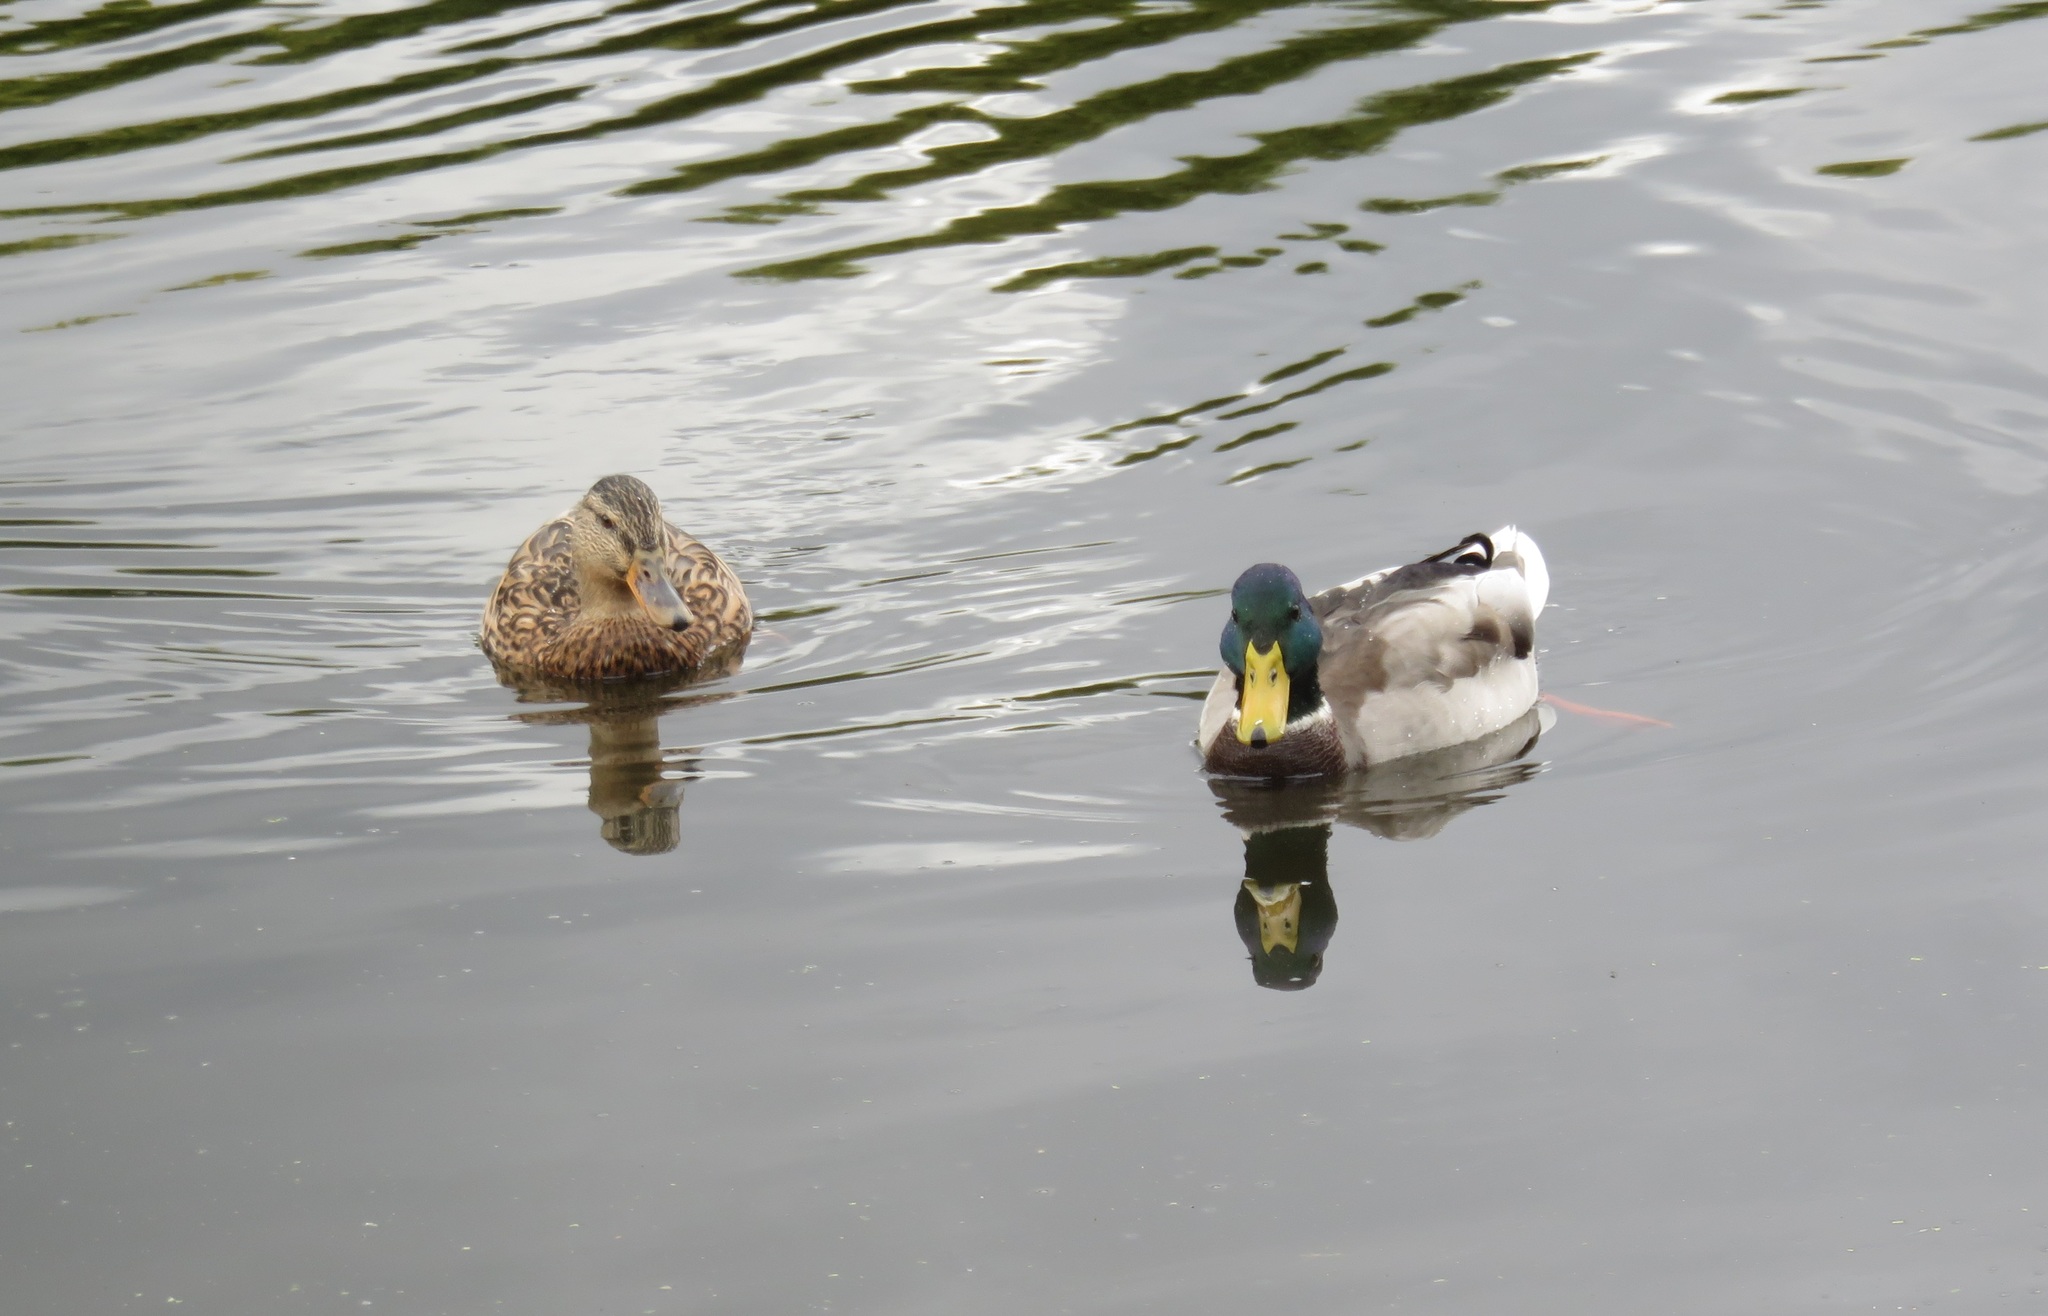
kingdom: Animalia
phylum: Chordata
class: Aves
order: Anseriformes
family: Anatidae
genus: Anas
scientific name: Anas platyrhynchos
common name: Mallard
